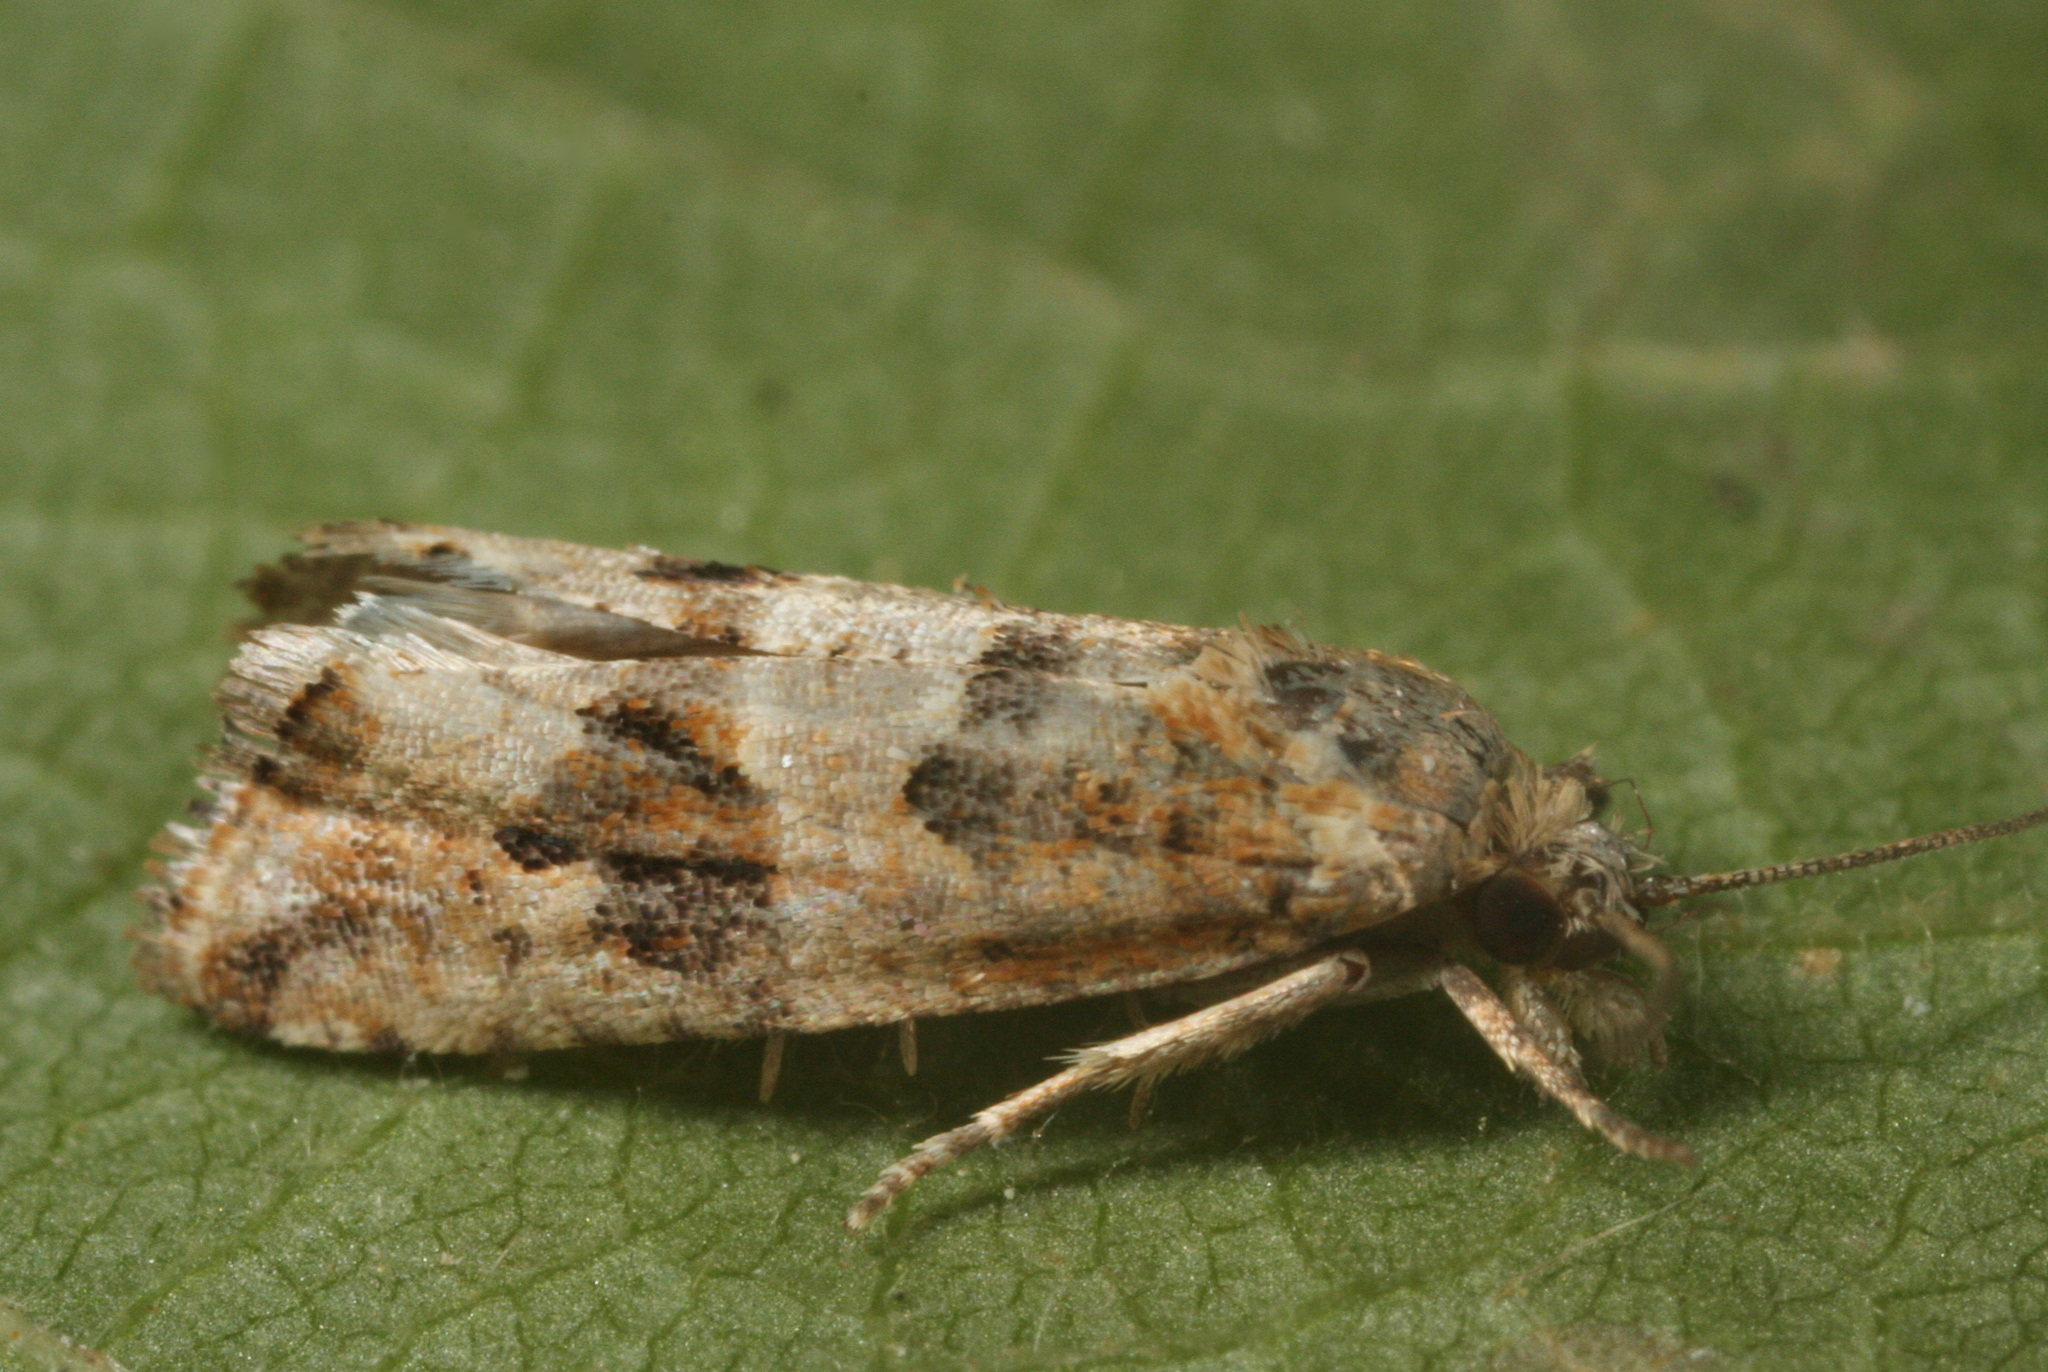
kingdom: Animalia
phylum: Arthropoda
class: Insecta
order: Lepidoptera
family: Tortricidae
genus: Endothenia
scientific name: Endothenia quadrimaculana
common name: Tortricid moth
